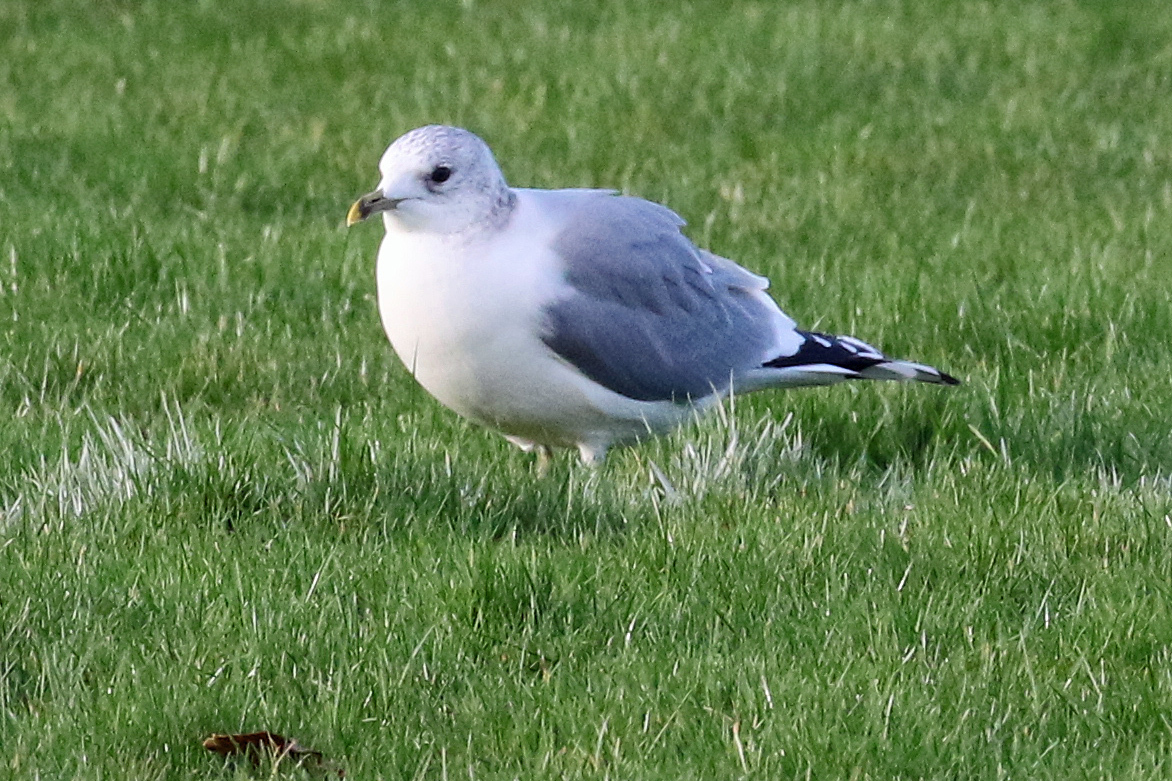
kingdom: Animalia
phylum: Chordata
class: Aves
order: Charadriiformes
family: Laridae
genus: Larus
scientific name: Larus canus
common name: Mew gull
